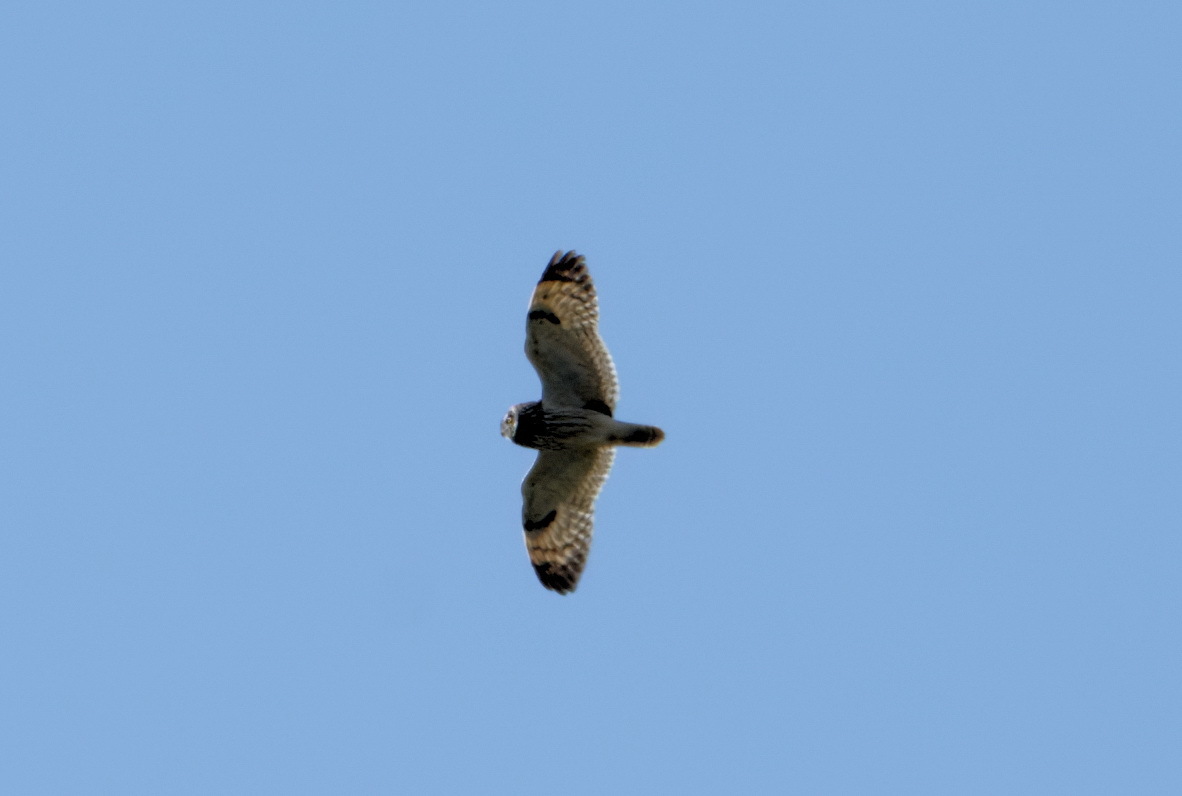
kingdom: Animalia
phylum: Chordata
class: Aves
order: Strigiformes
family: Strigidae
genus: Asio
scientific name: Asio flammeus
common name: Short-eared owl
